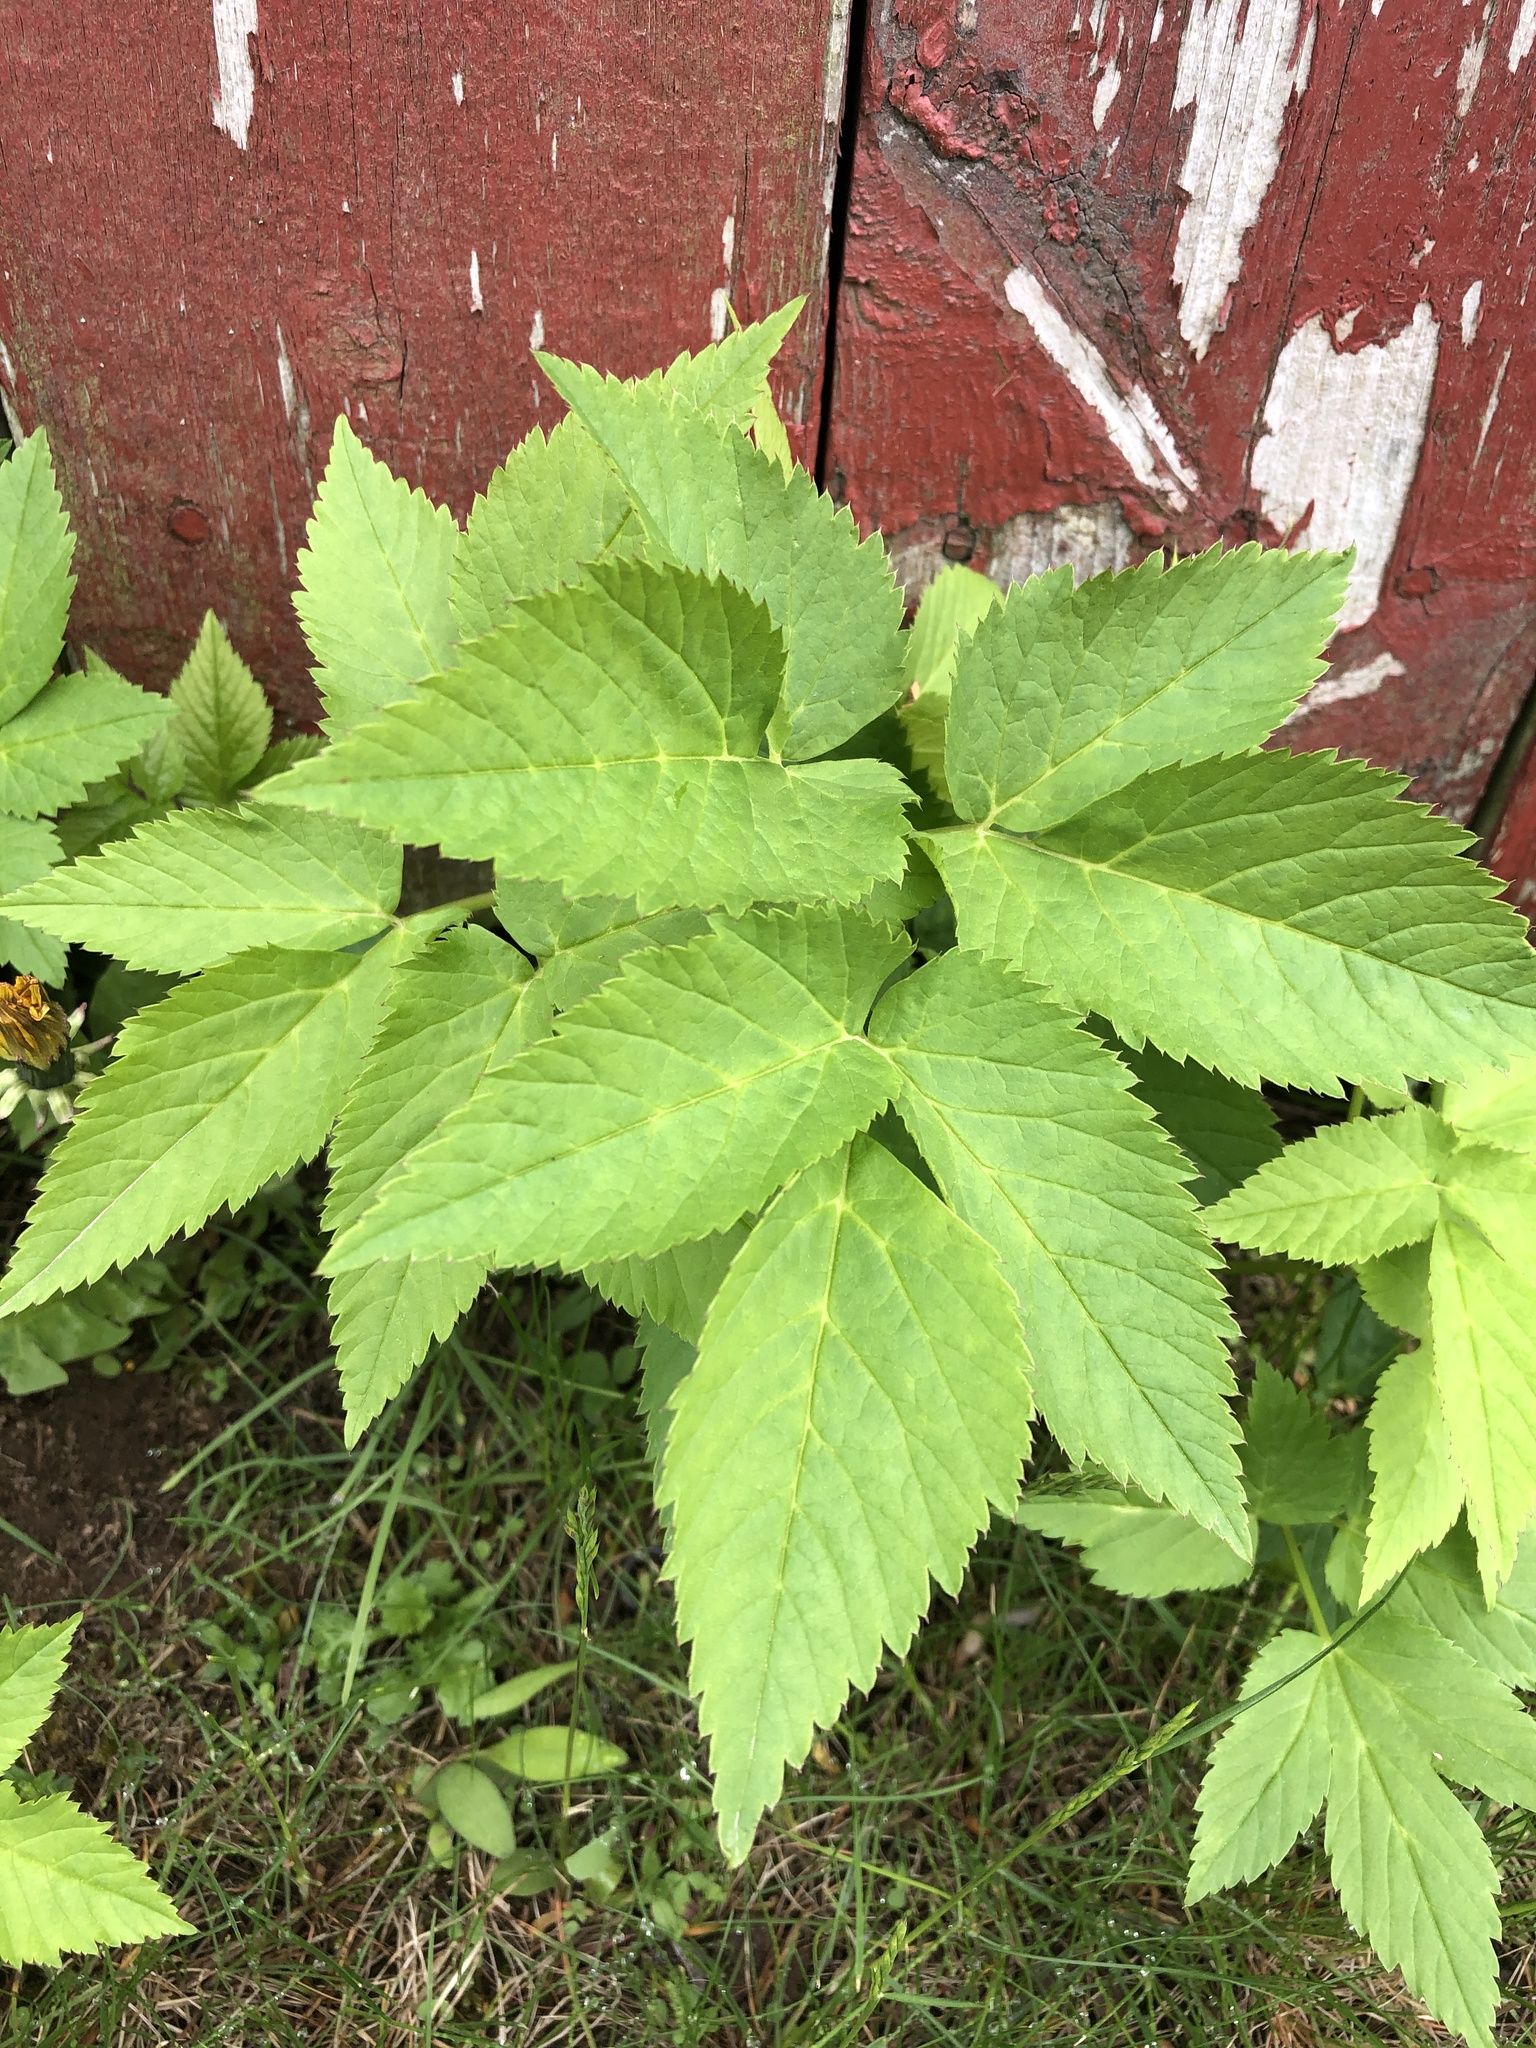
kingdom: Plantae
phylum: Tracheophyta
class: Magnoliopsida
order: Apiales
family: Apiaceae
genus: Aegopodium
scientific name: Aegopodium podagraria
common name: Ground-elder
